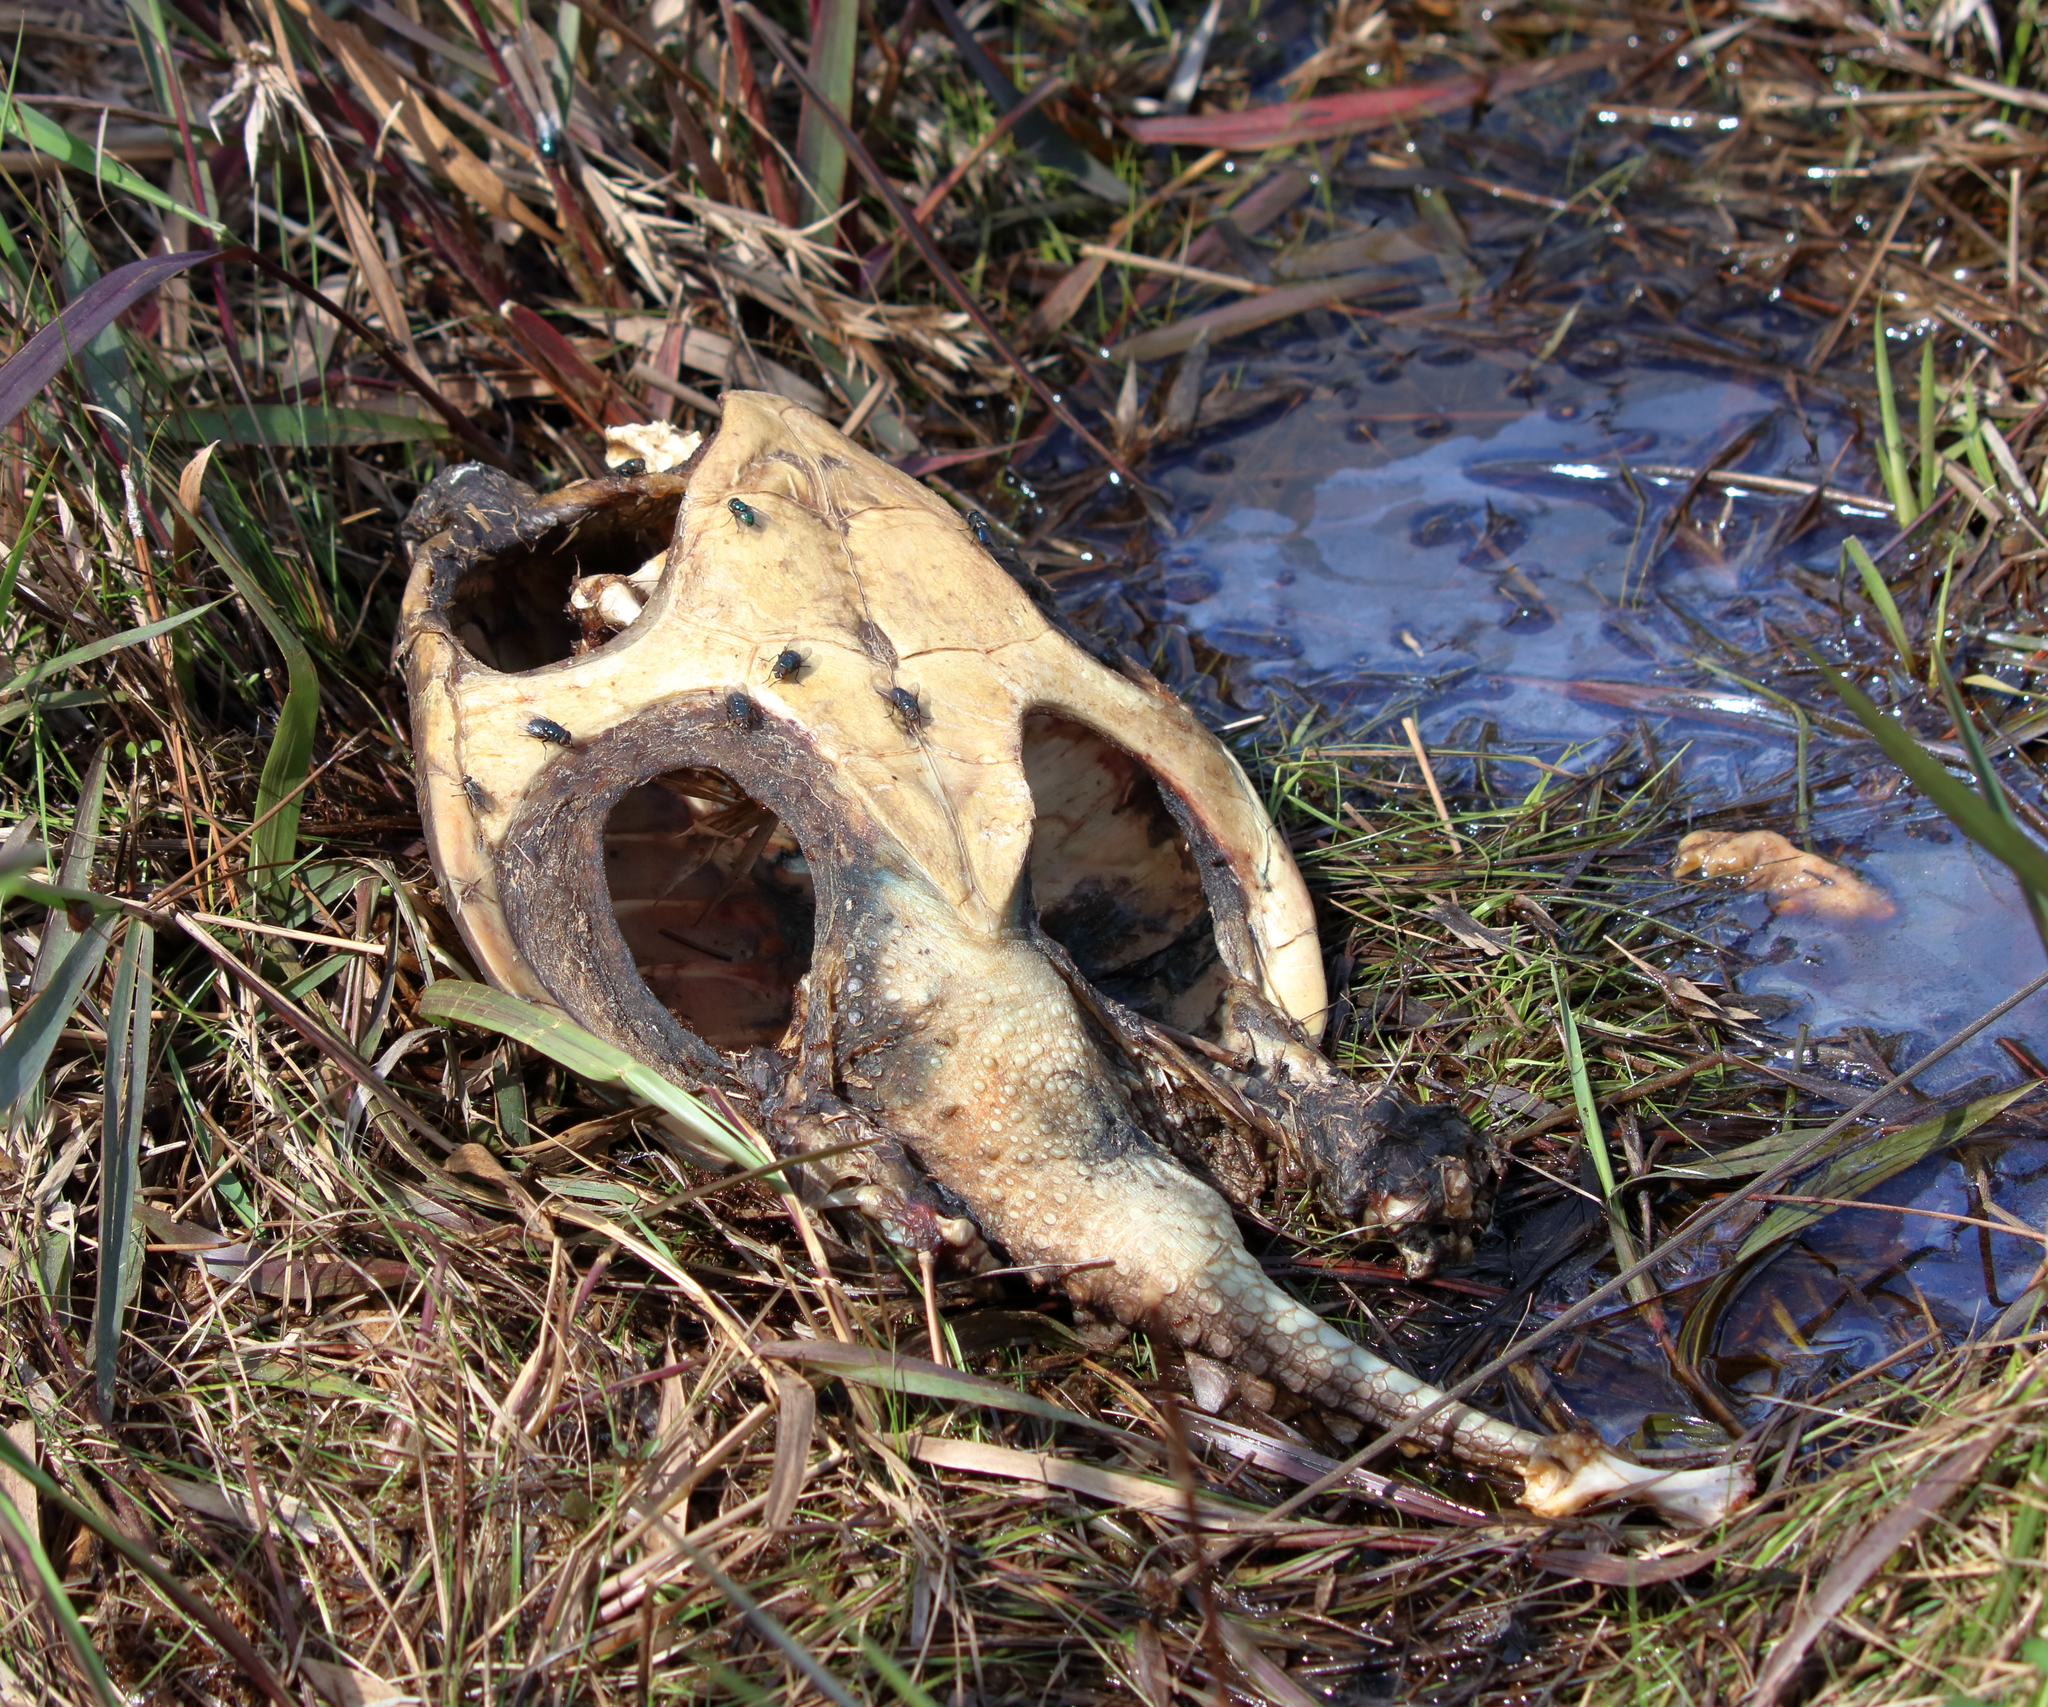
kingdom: Animalia
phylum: Chordata
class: Testudines
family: Chelydridae
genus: Chelydra
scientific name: Chelydra serpentina
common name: Common snapping turtle
